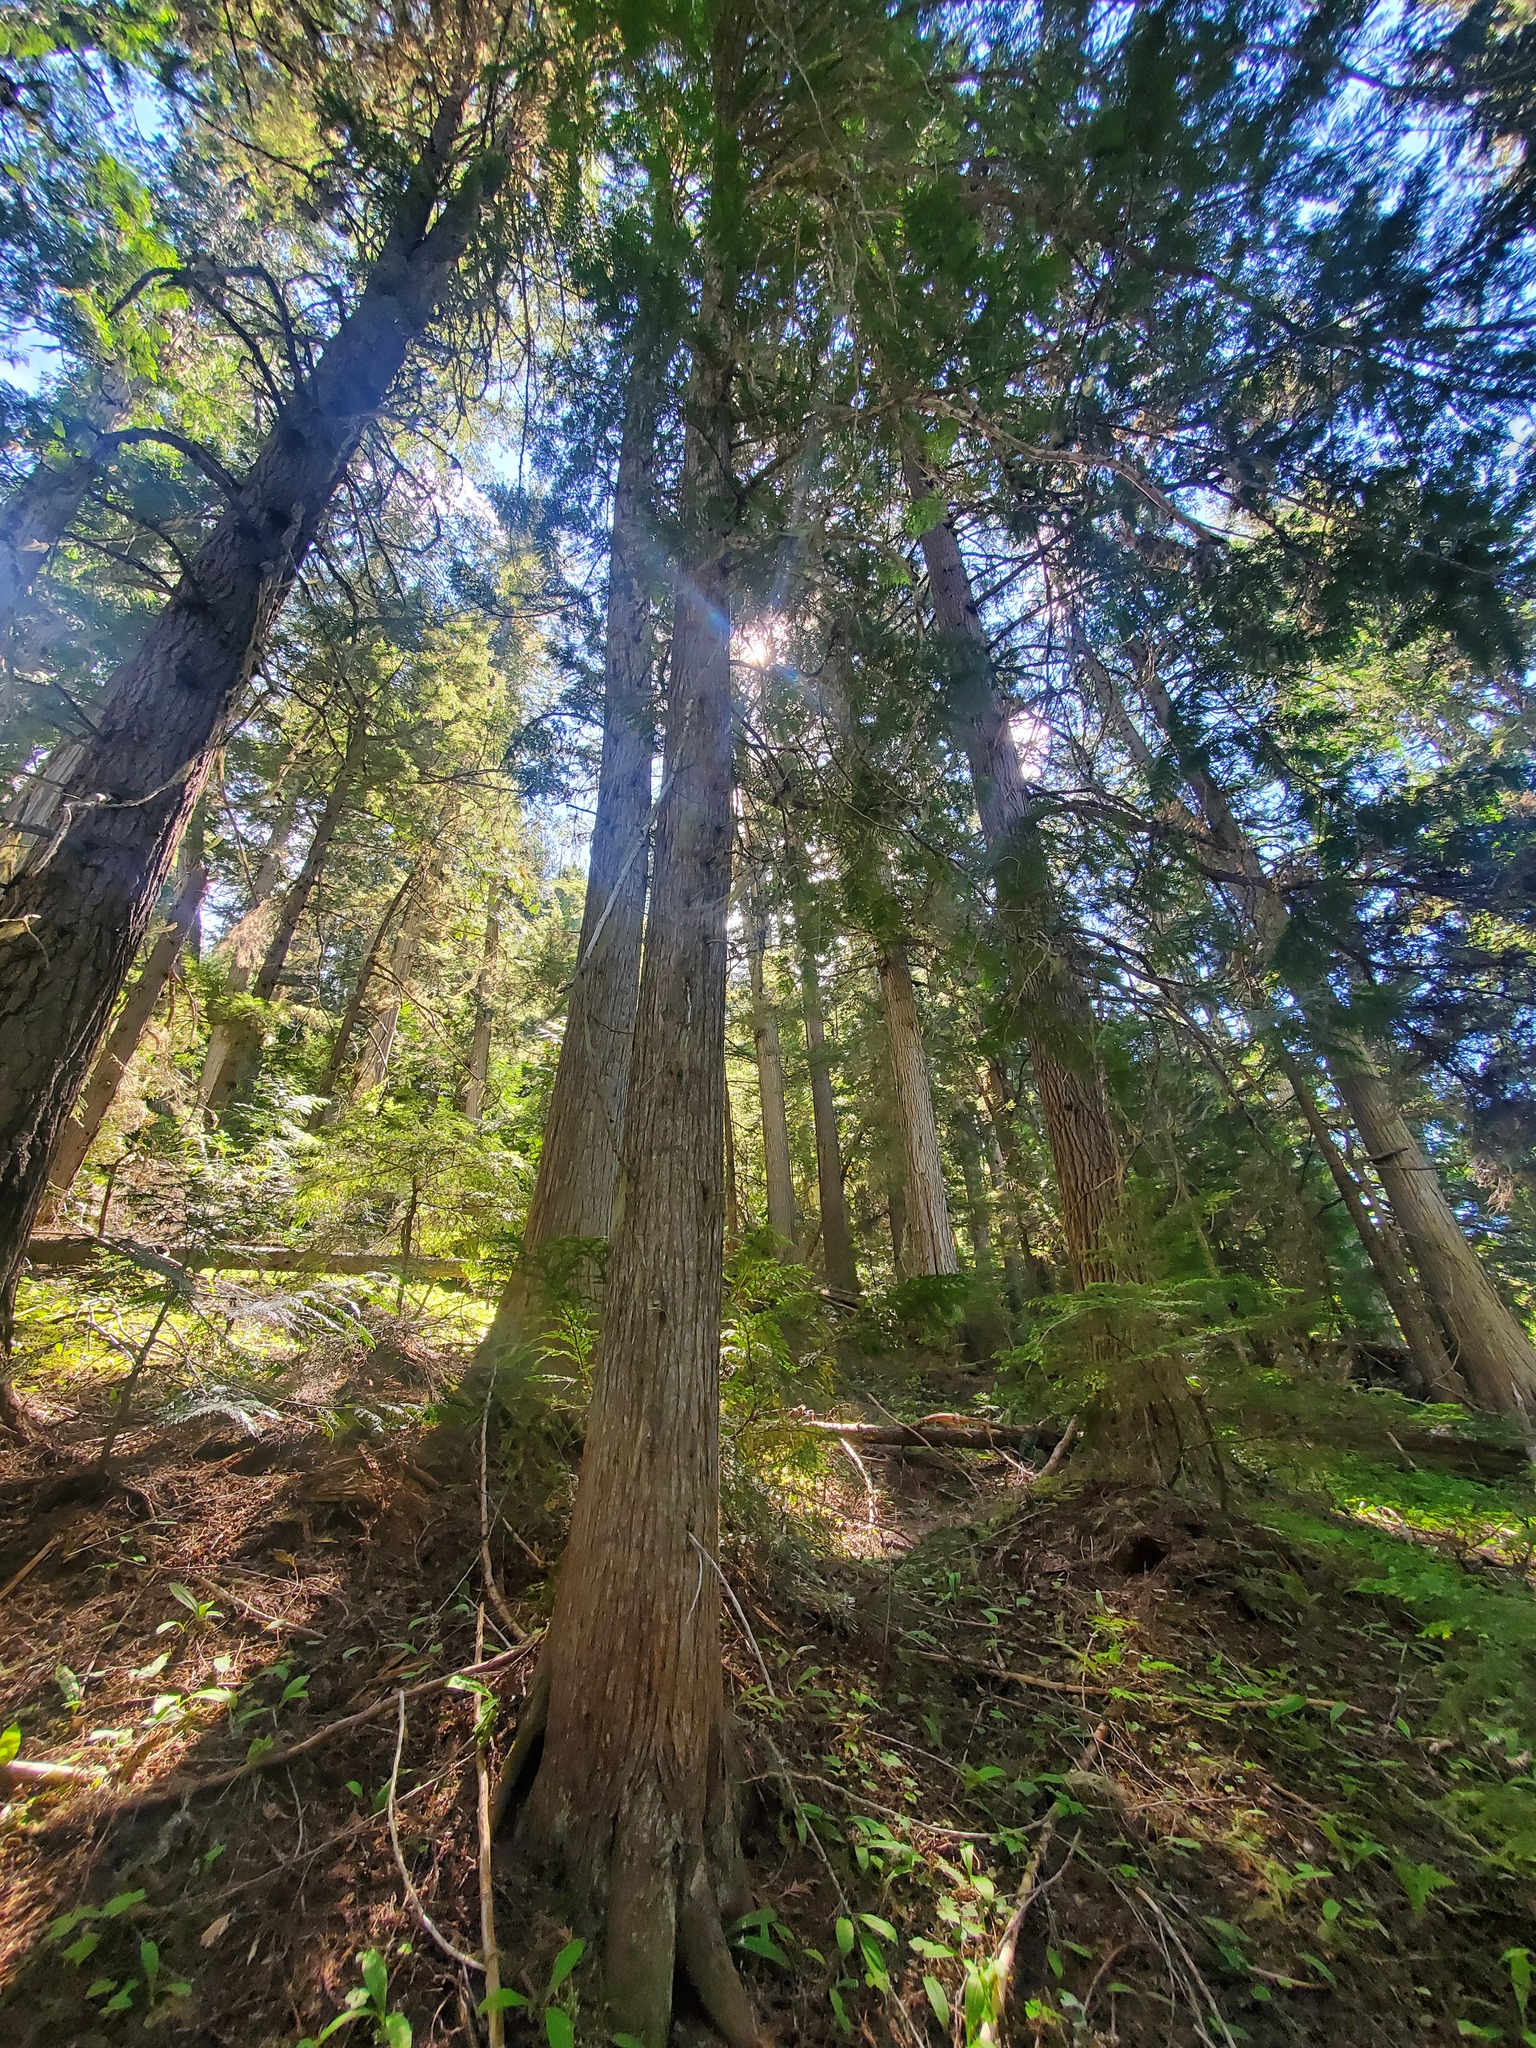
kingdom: Plantae
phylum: Tracheophyta
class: Pinopsida
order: Pinales
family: Cupressaceae
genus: Thuja
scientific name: Thuja plicata
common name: Western red-cedar
